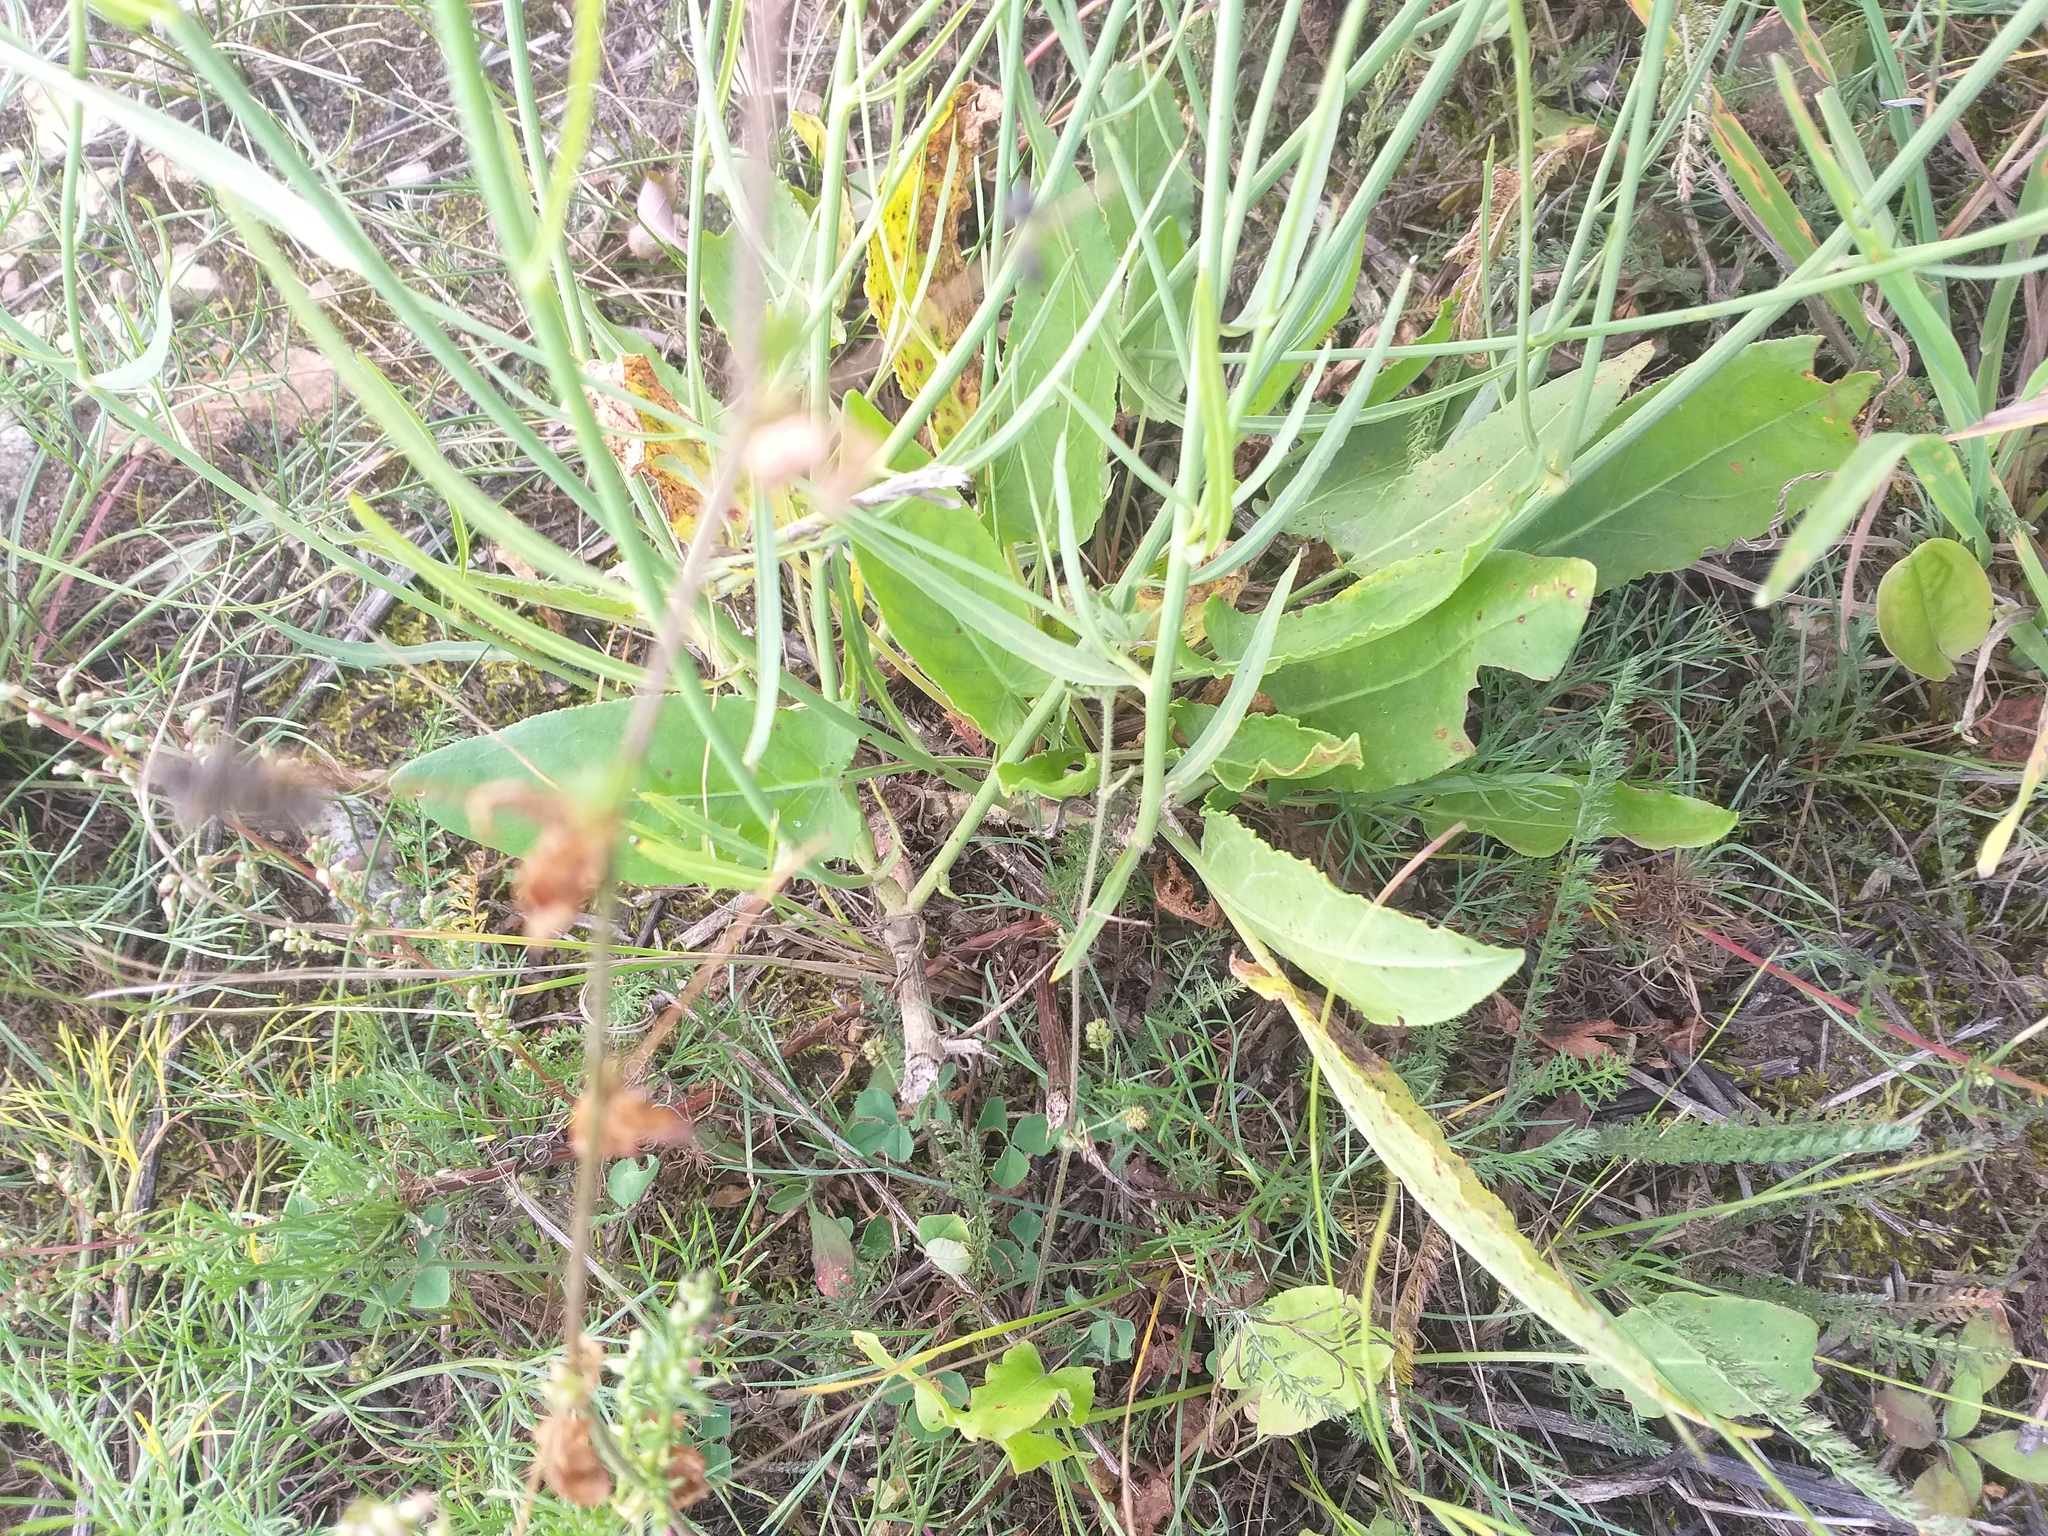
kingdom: Plantae
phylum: Tracheophyta
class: Magnoliopsida
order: Asterales
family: Asteraceae
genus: Chondrilla
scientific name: Chondrilla juncea
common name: Skeleton weed
